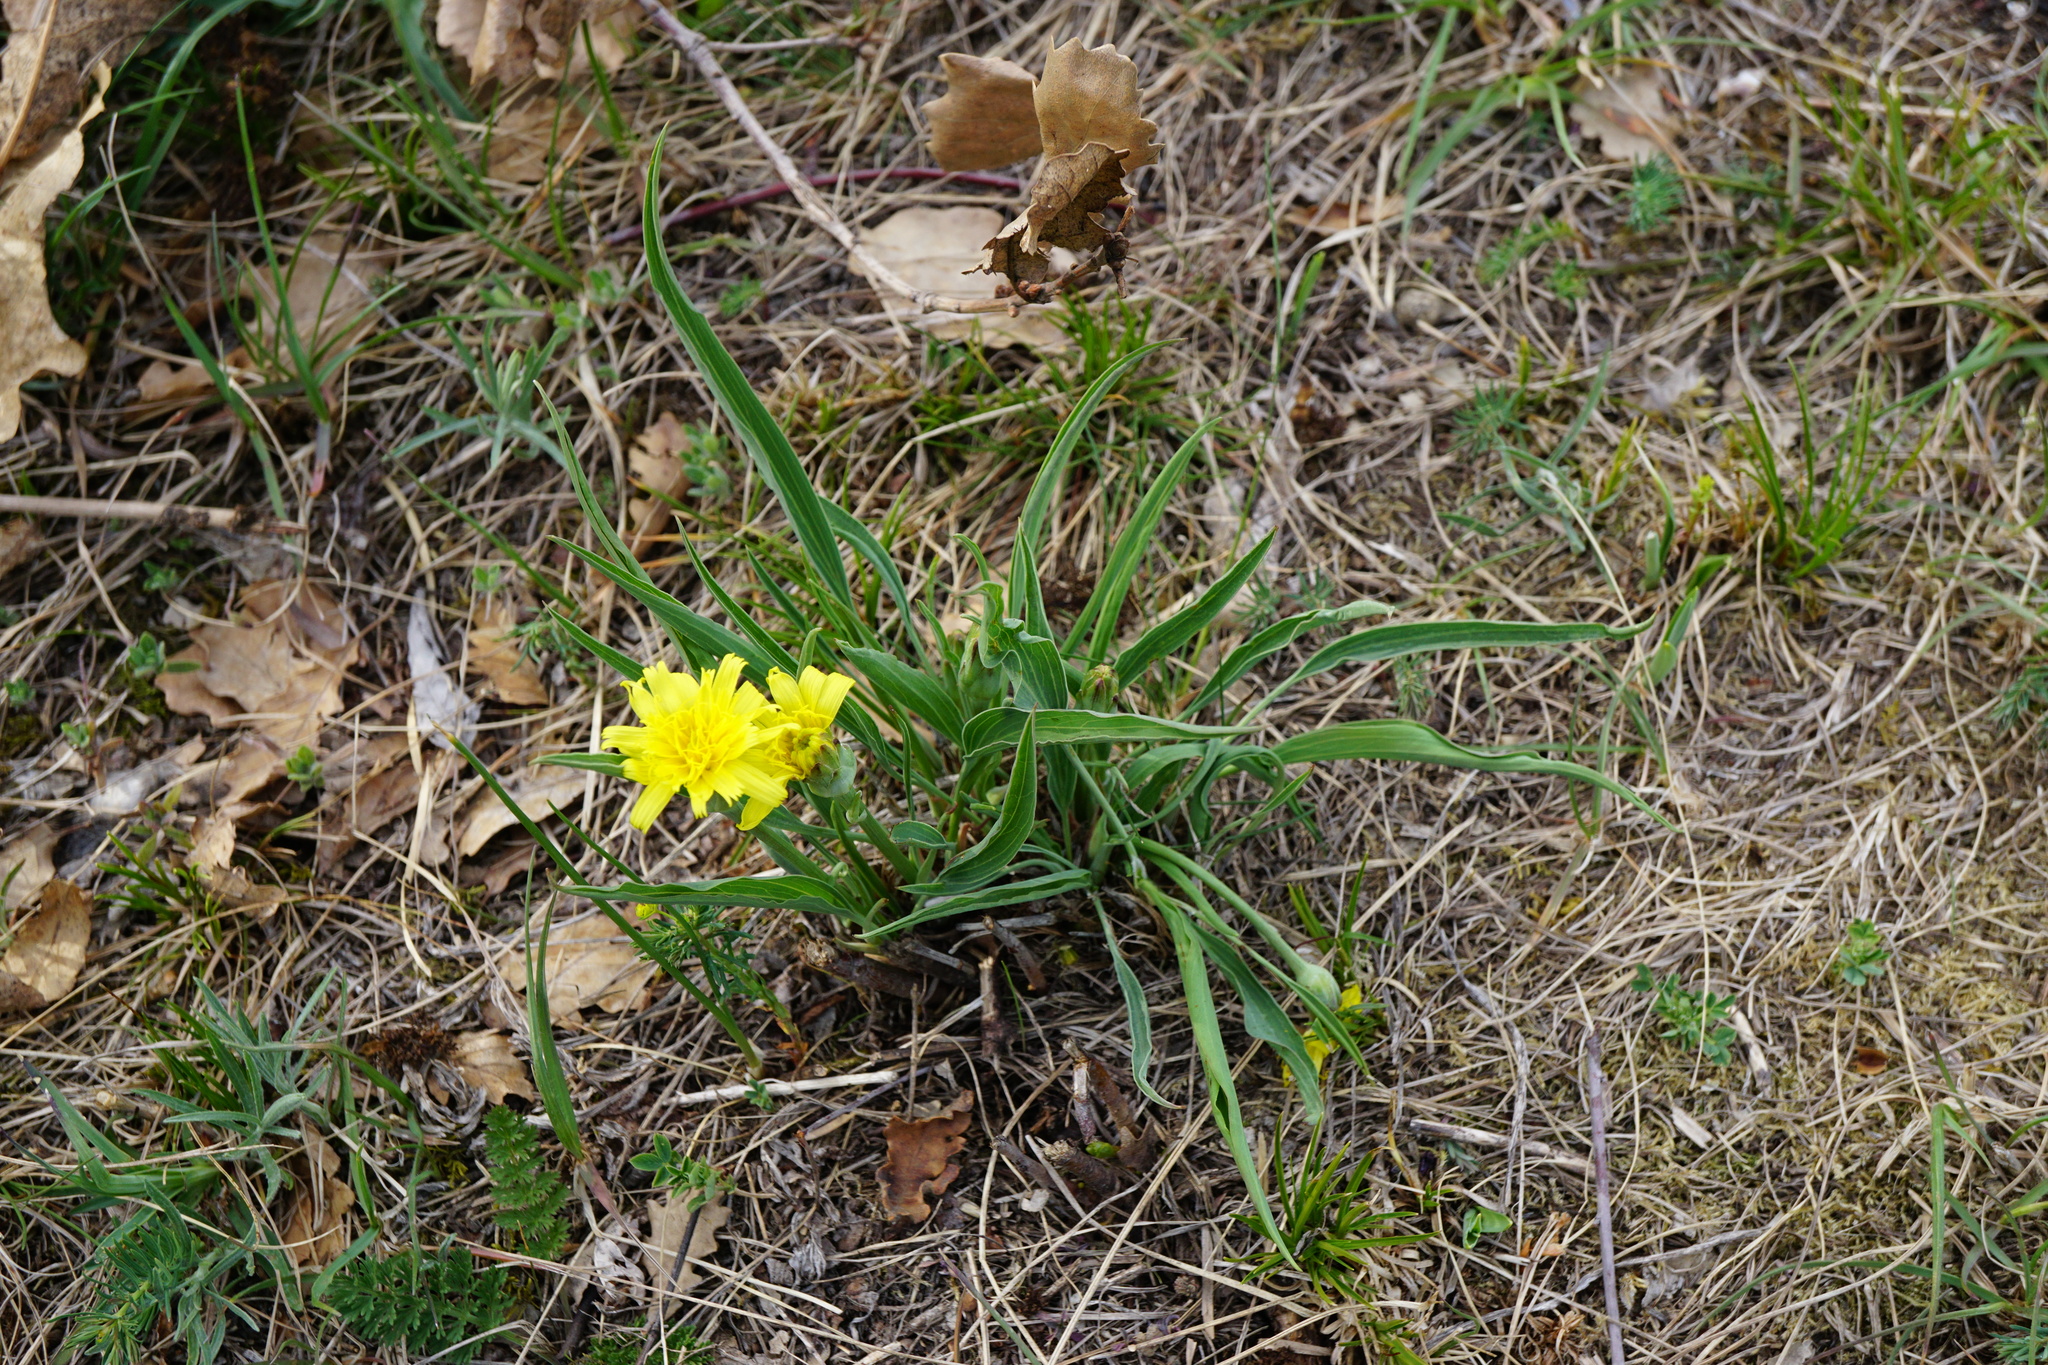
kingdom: Plantae
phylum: Tracheophyta
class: Magnoliopsida
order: Asterales
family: Asteraceae
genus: Takhtajaniantha
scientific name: Takhtajaniantha austriaca
